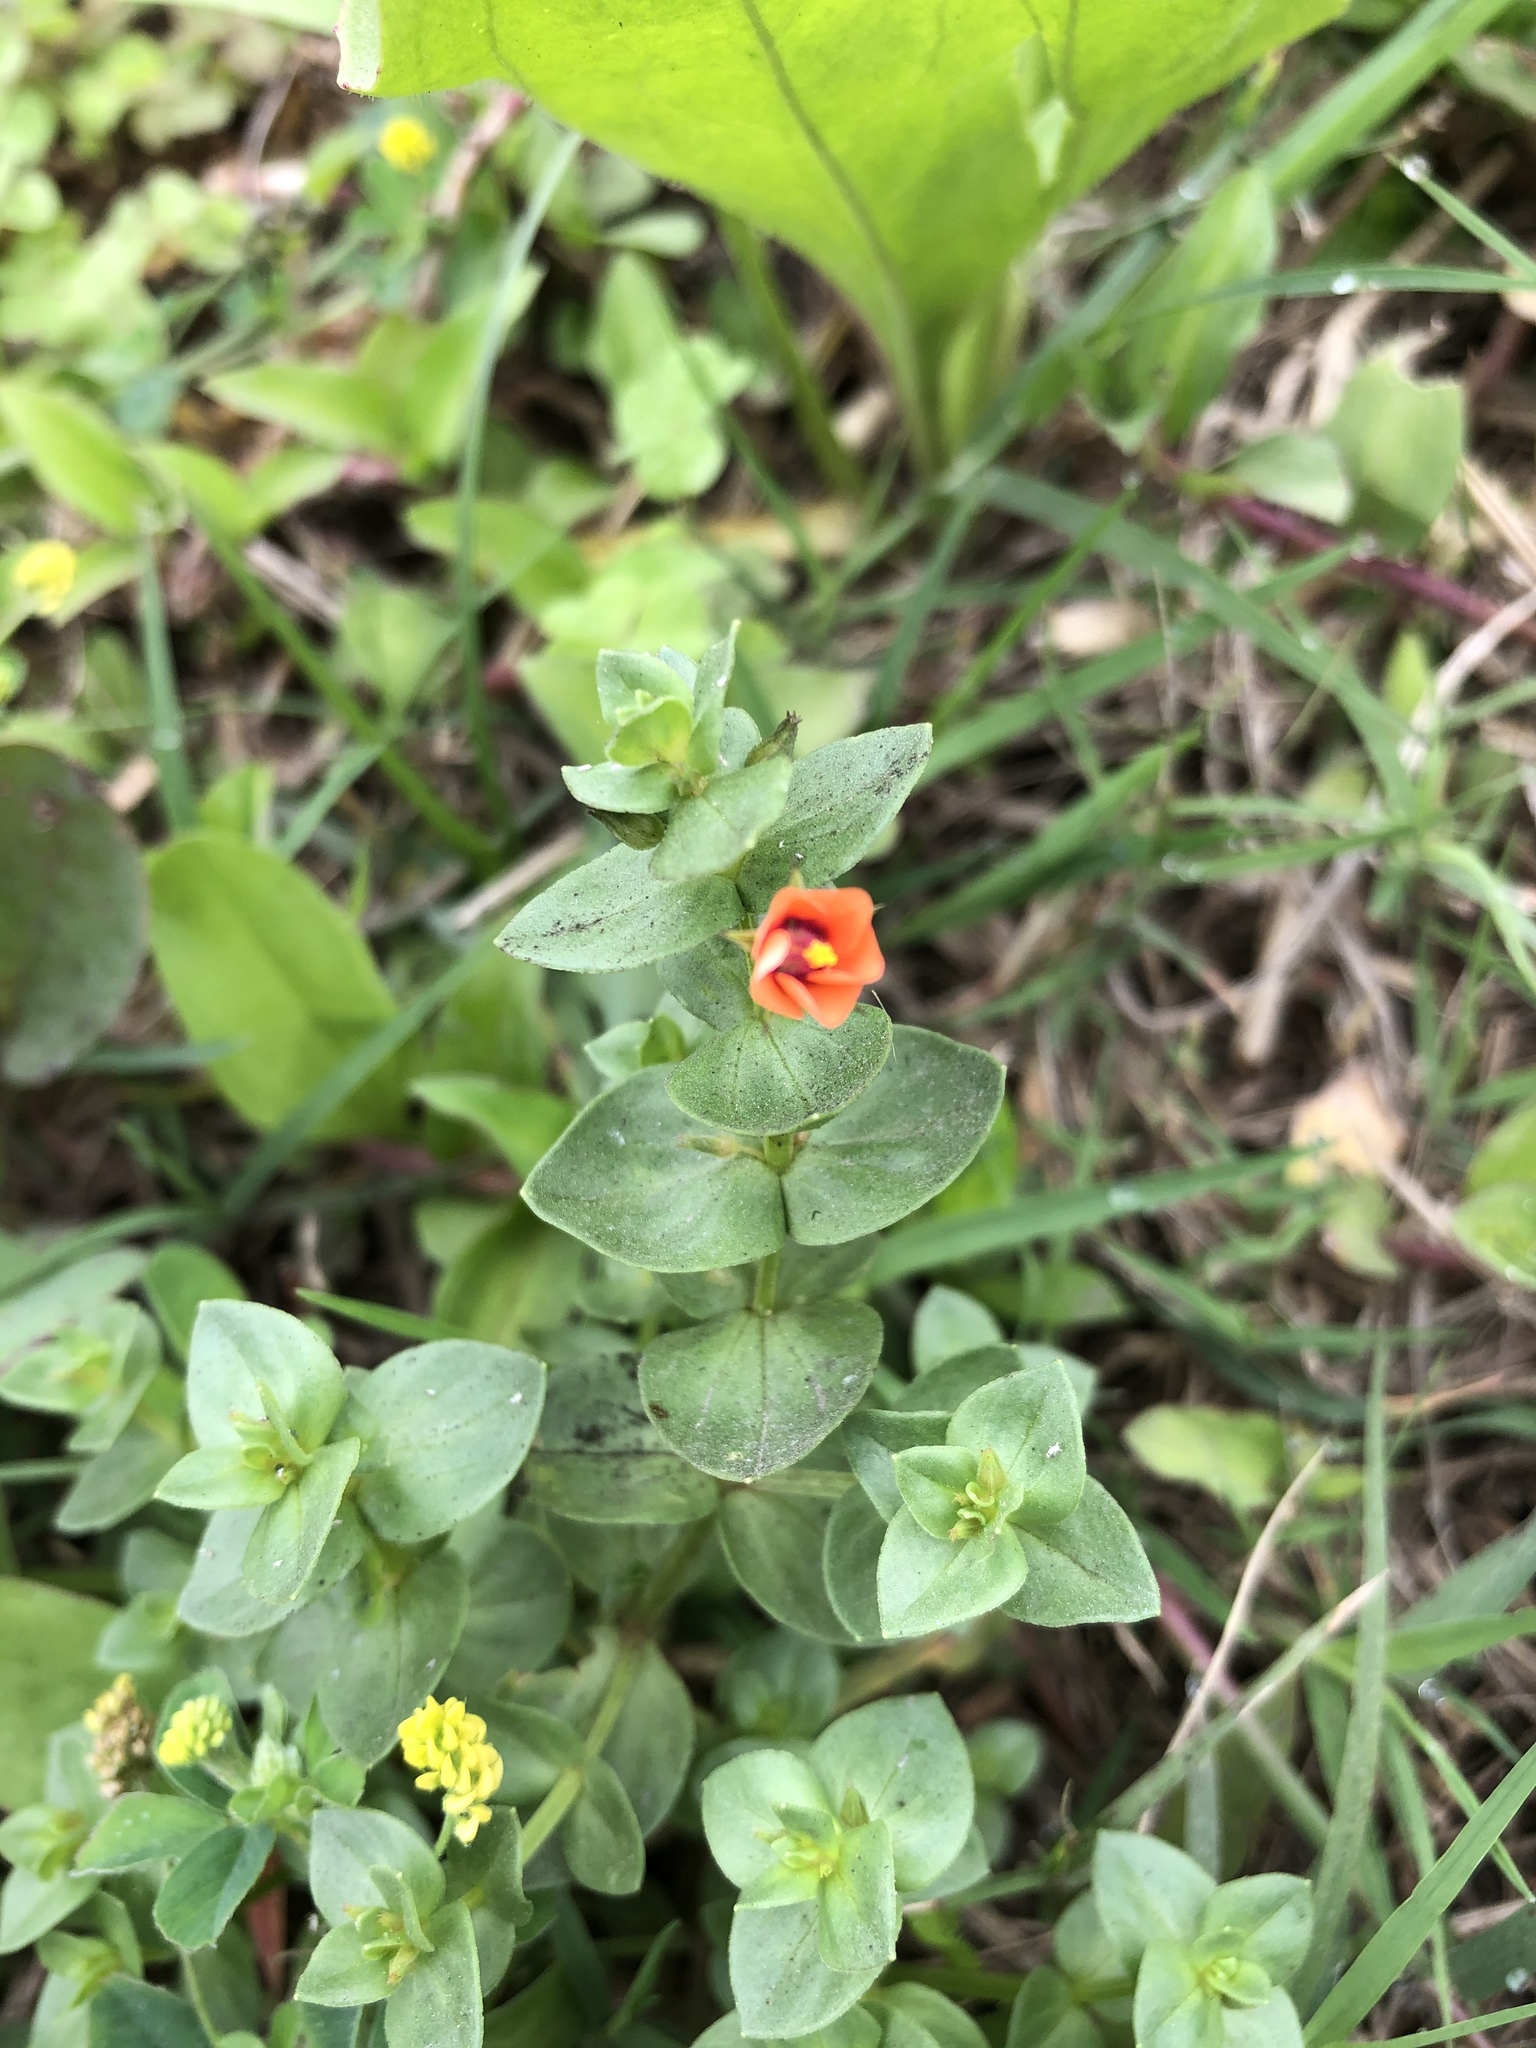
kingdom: Plantae
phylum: Tracheophyta
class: Magnoliopsida
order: Ericales
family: Primulaceae
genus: Lysimachia
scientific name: Lysimachia arvensis
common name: Scarlet pimpernel
